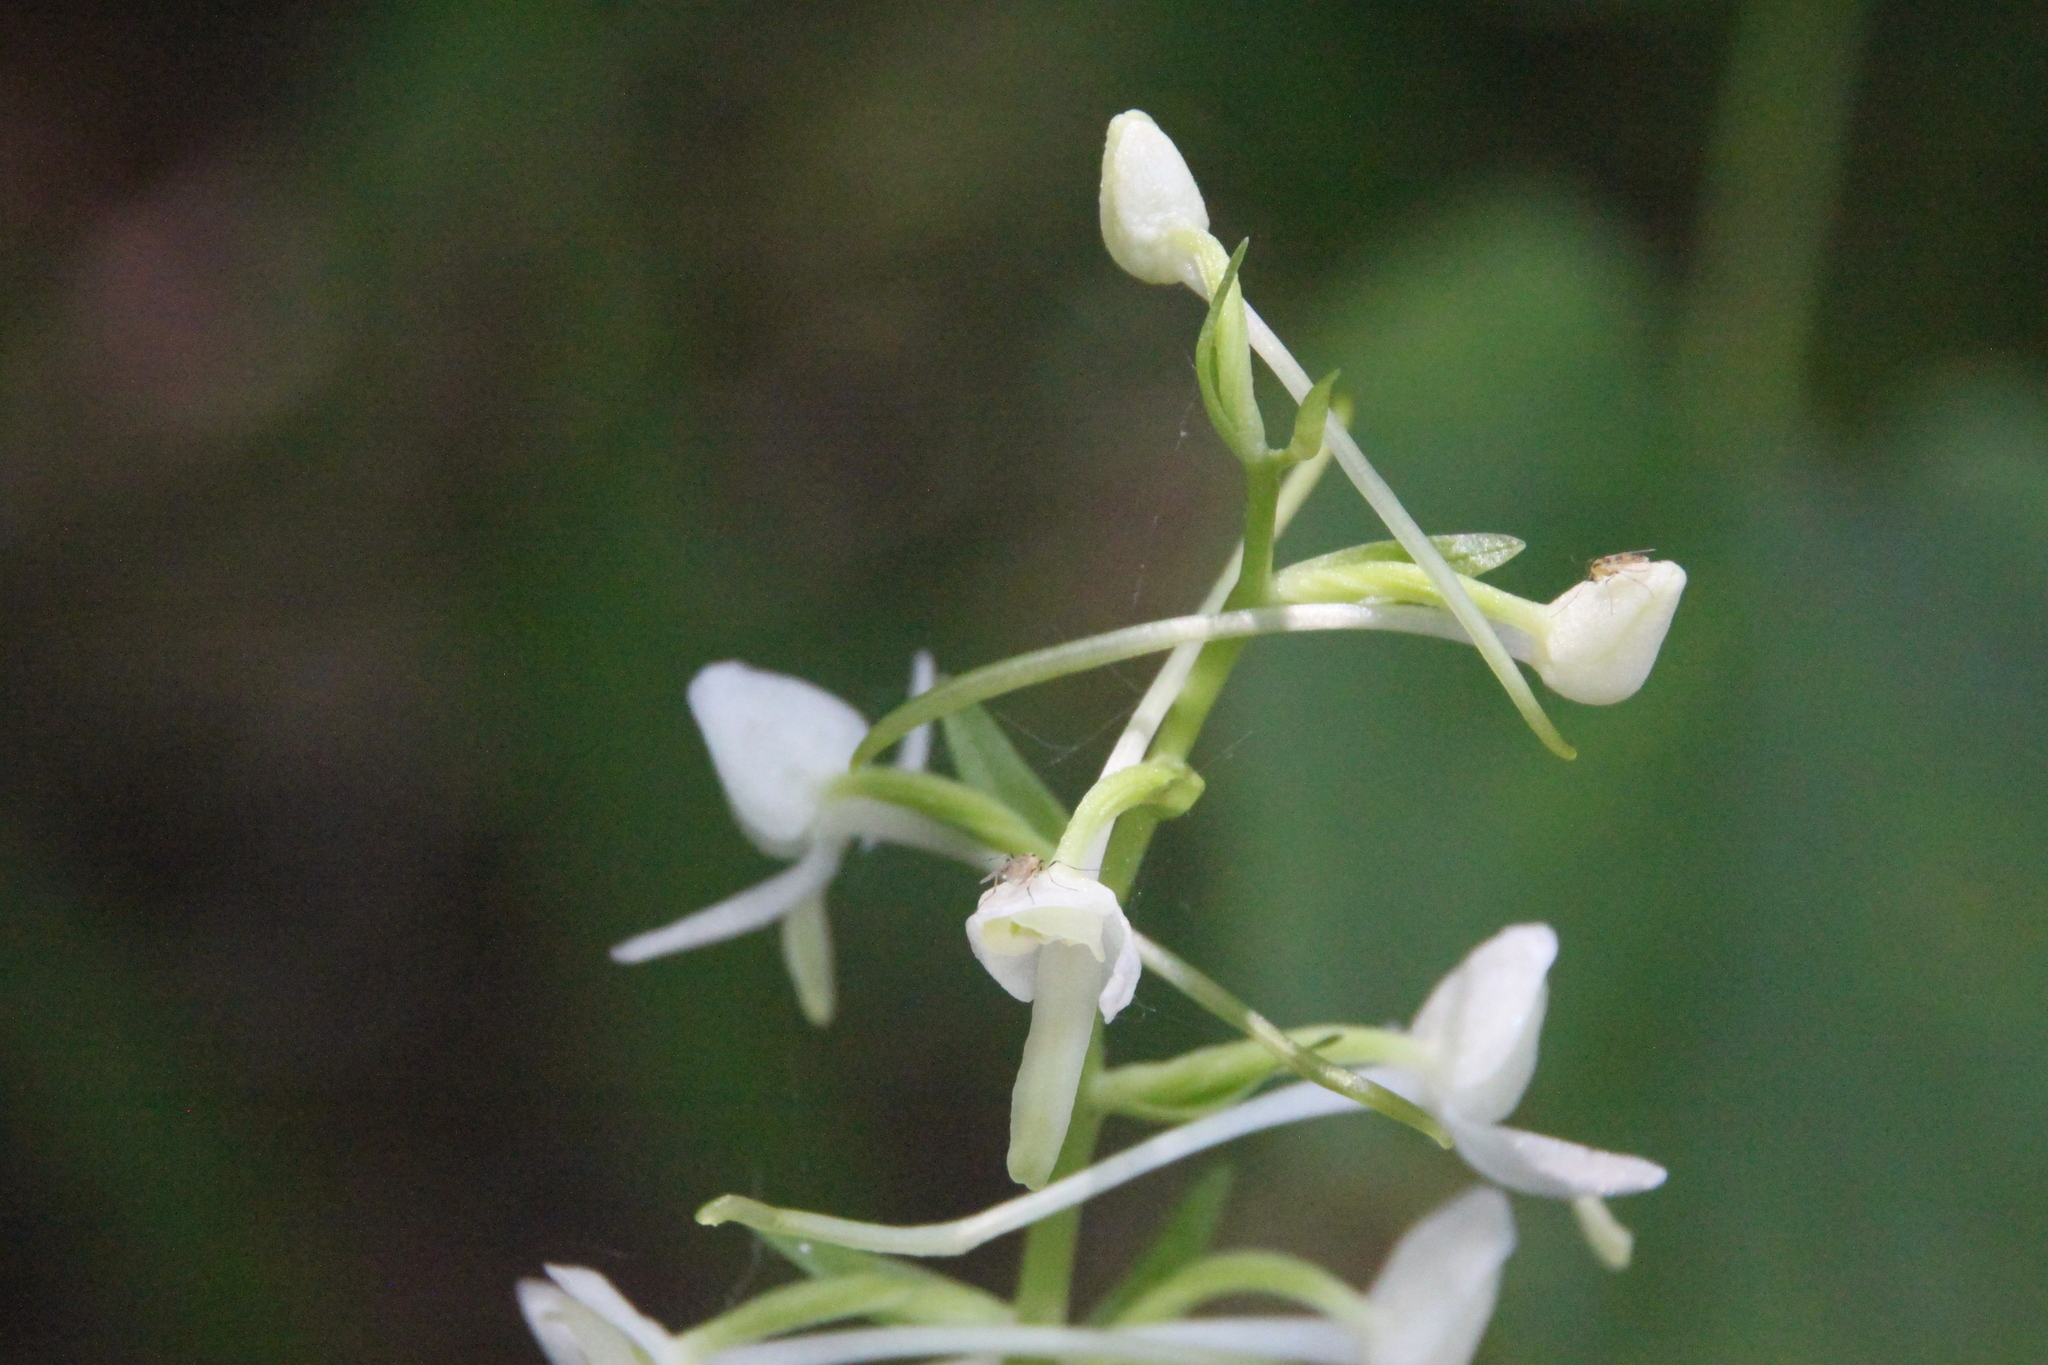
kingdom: Plantae
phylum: Tracheophyta
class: Liliopsida
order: Asparagales
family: Orchidaceae
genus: Platanthera
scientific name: Platanthera bifolia
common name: Lesser butterfly-orchid
